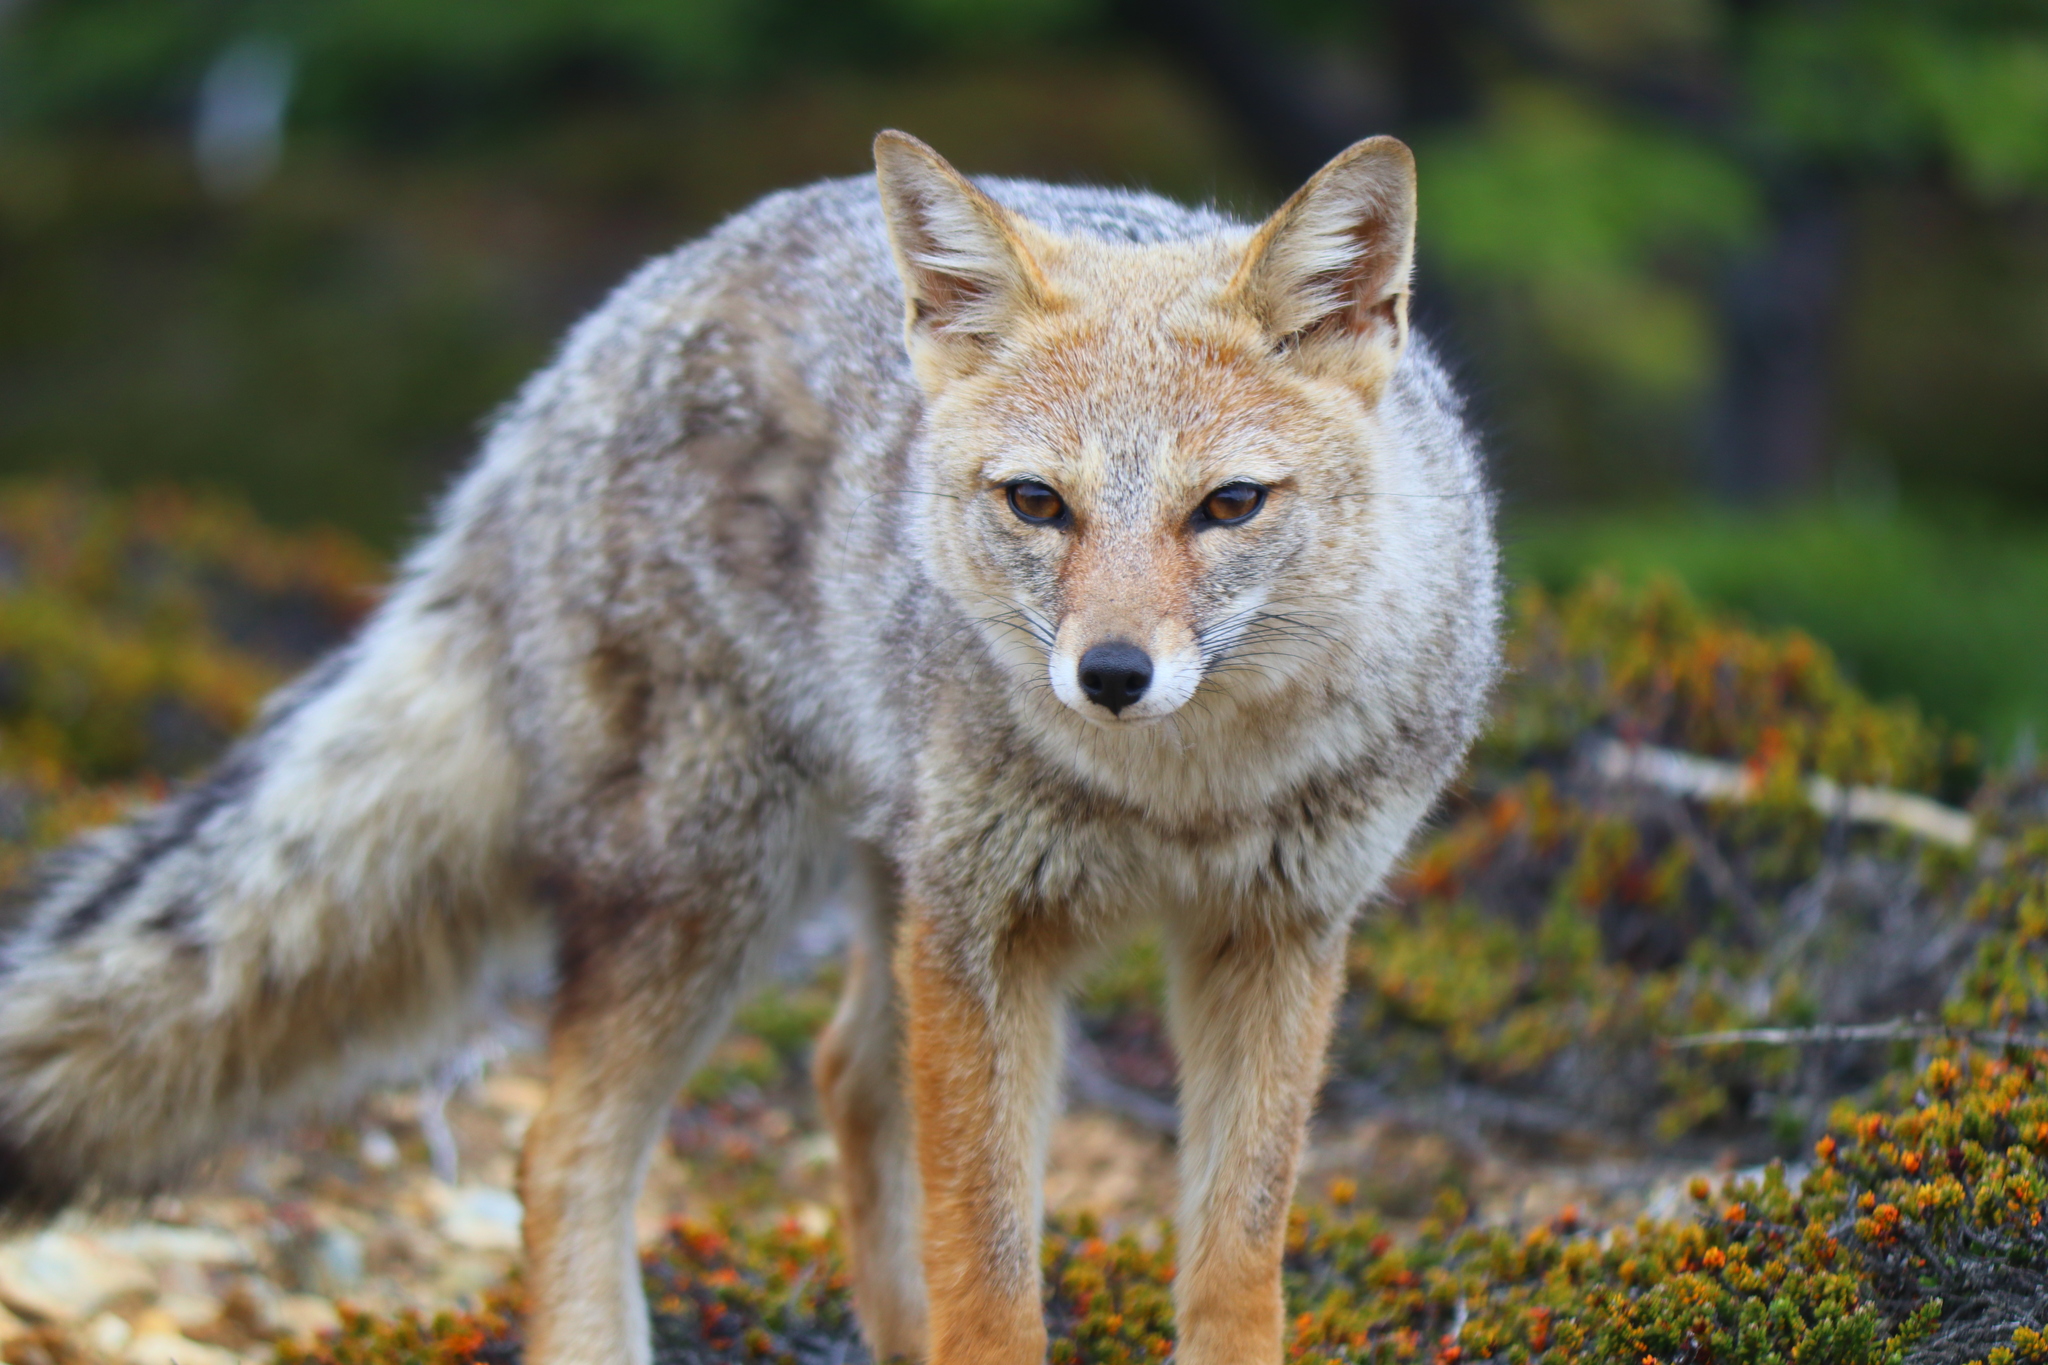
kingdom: Animalia
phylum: Chordata
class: Mammalia
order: Carnivora
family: Canidae
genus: Lycalopex
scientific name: Lycalopex gymnocercus
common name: Pampas fox
